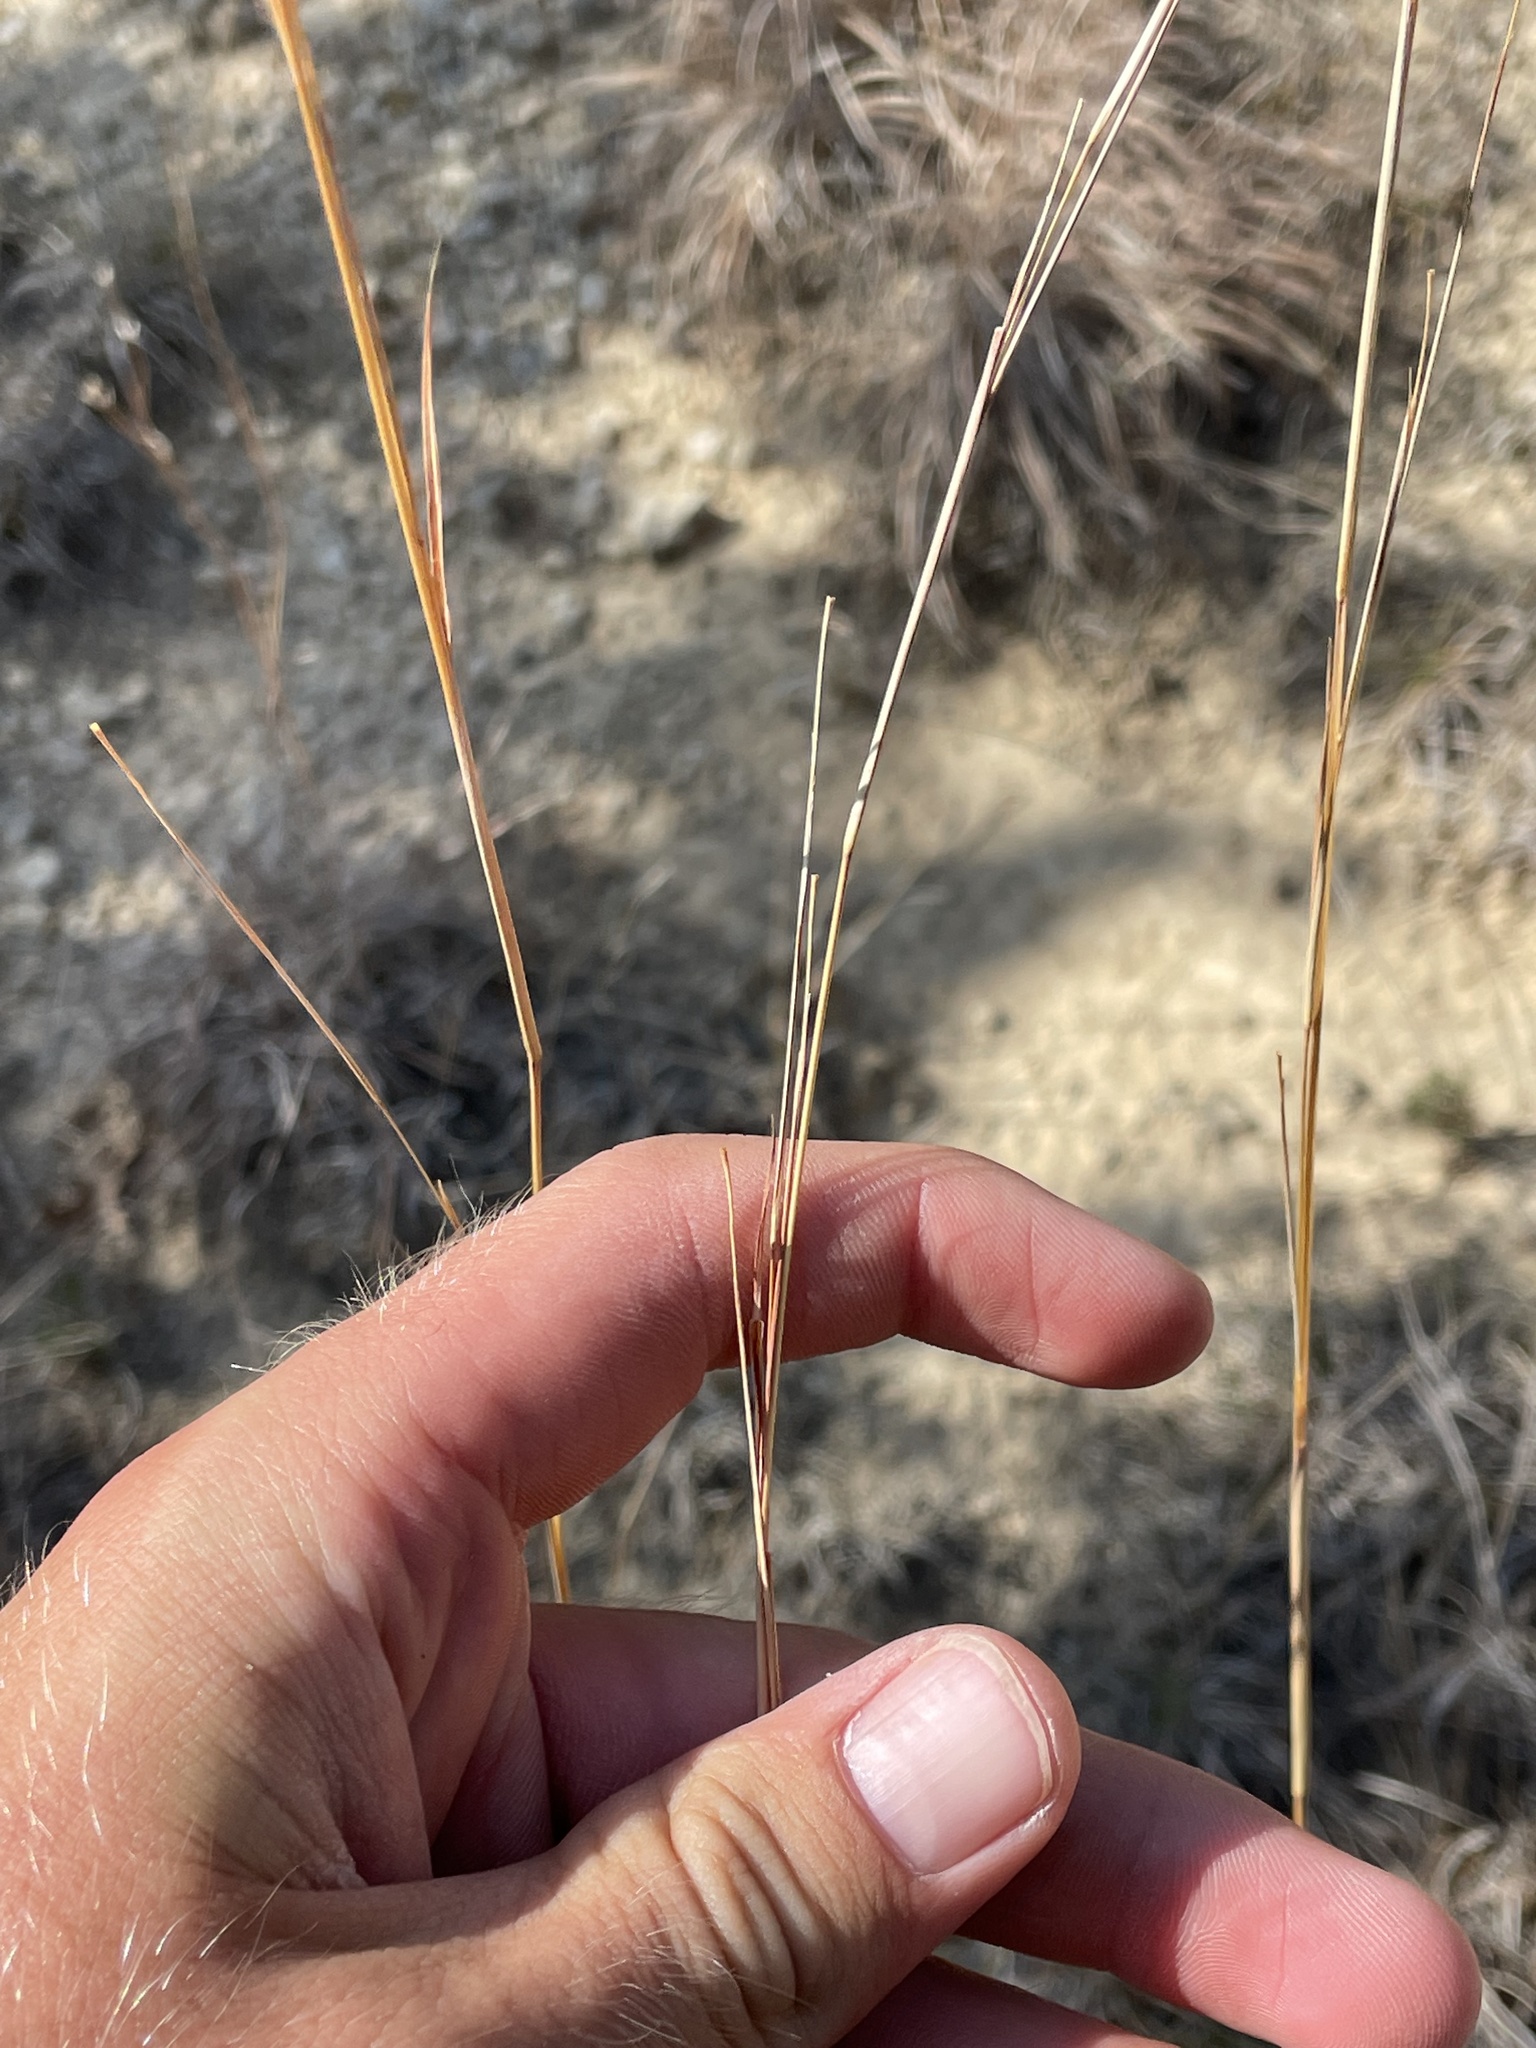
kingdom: Plantae
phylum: Tracheophyta
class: Liliopsida
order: Poales
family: Poaceae
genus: Schizachyrium
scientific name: Schizachyrium scoparium
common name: Little bluestem
